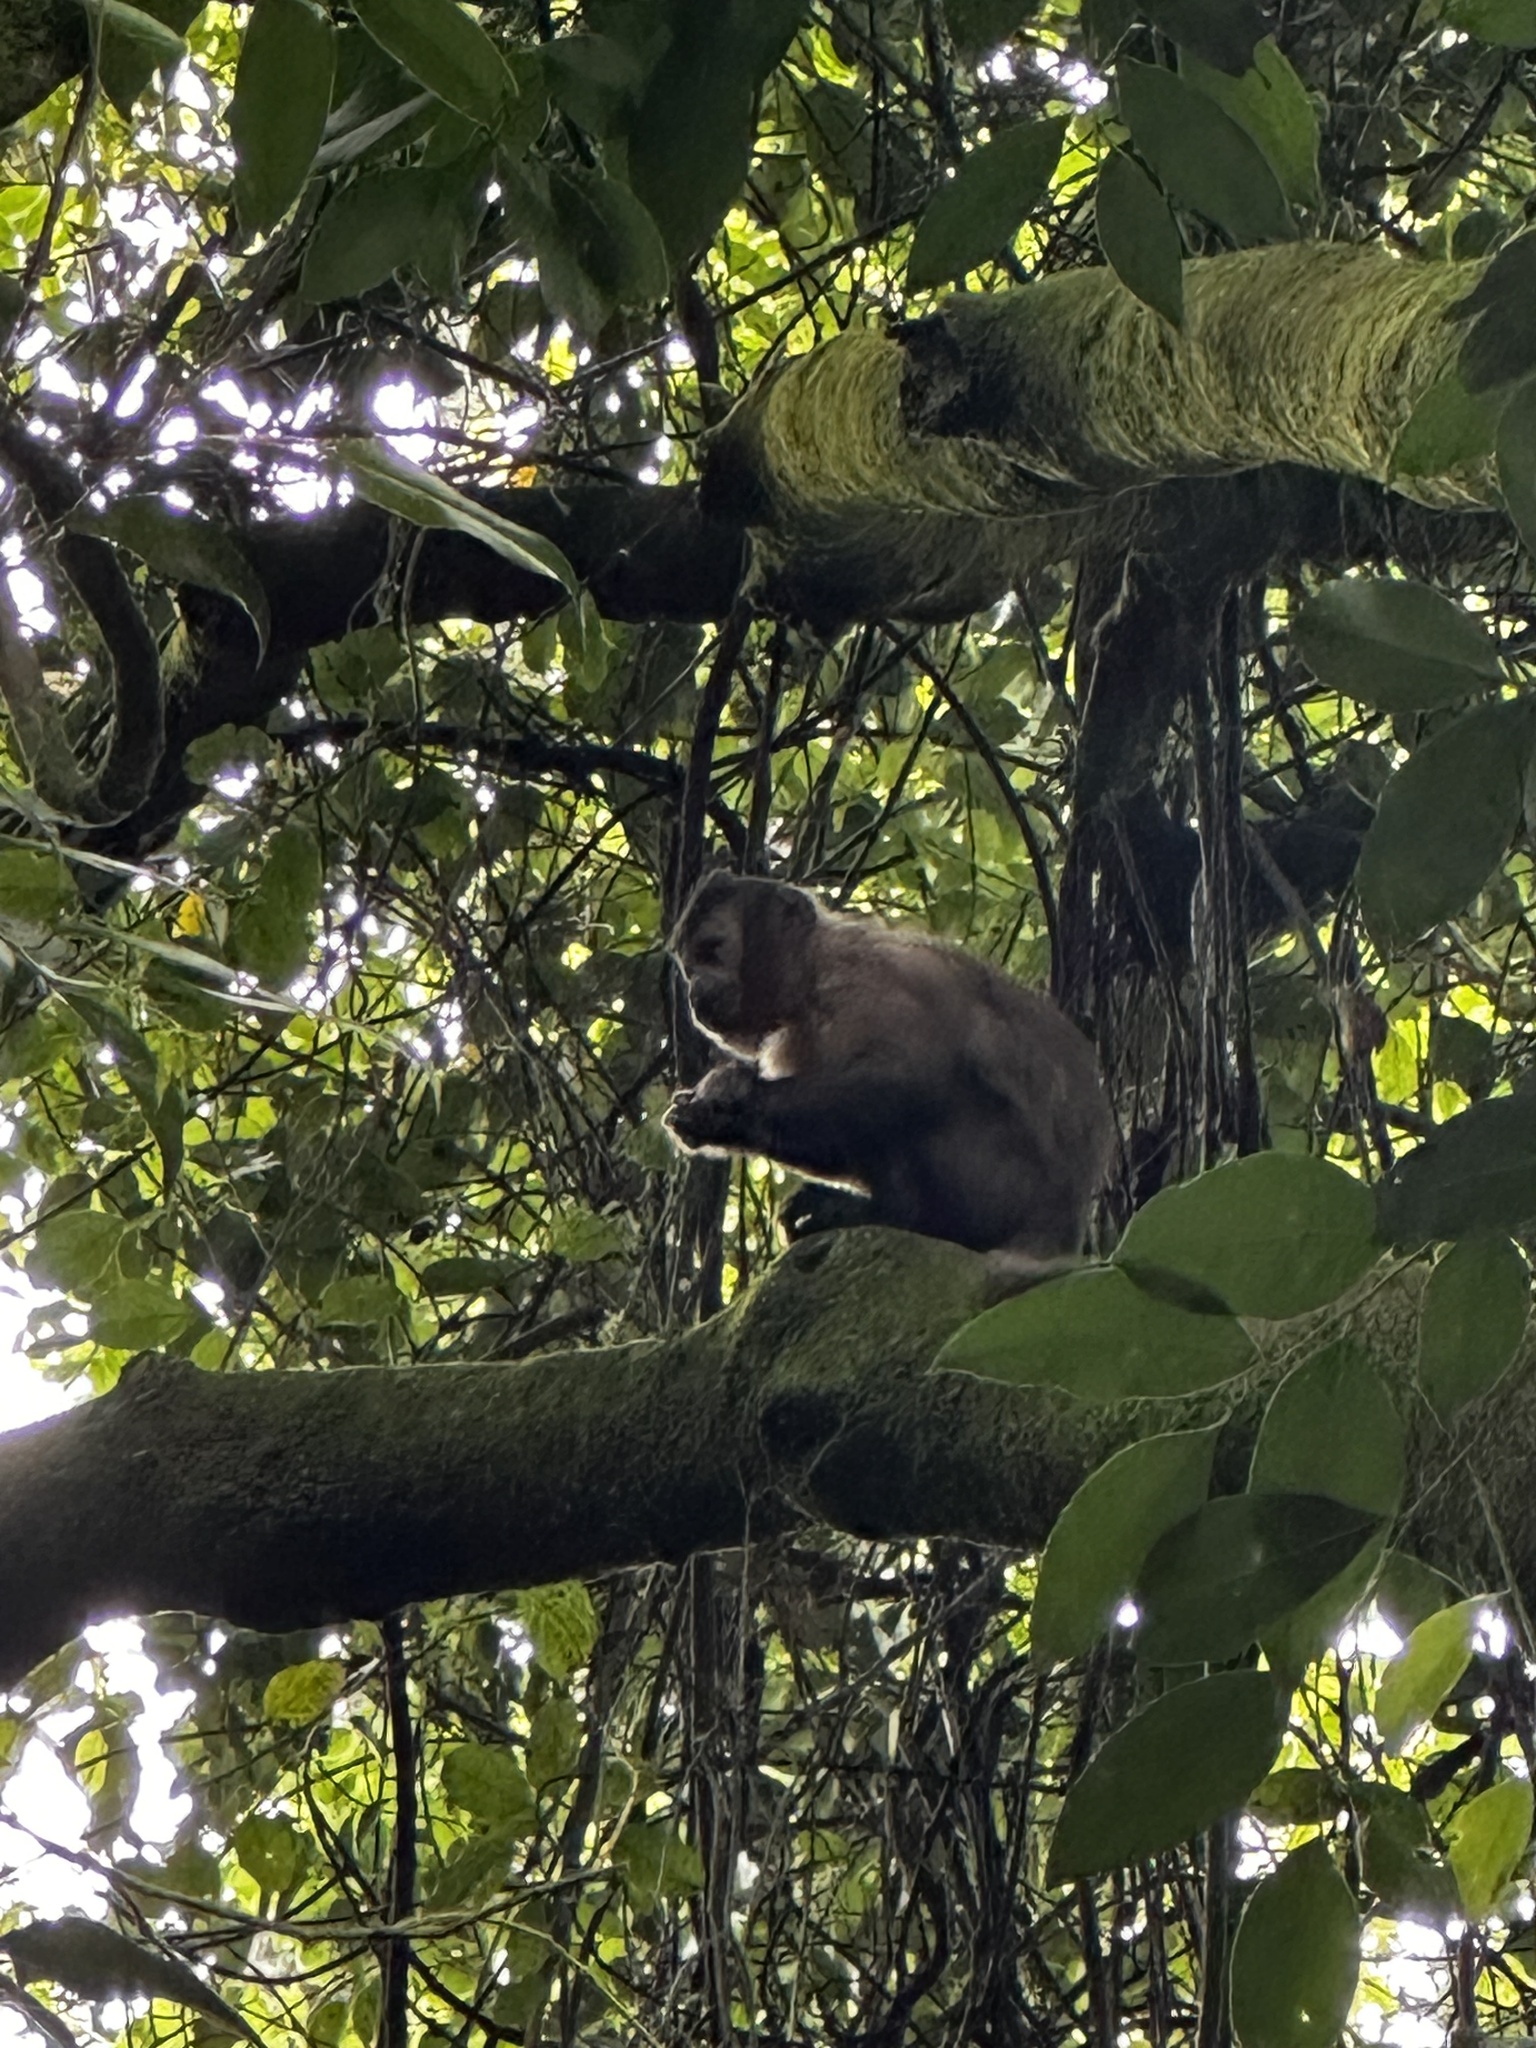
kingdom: Animalia
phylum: Chordata
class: Mammalia
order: Primates
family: Cebidae
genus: Sapajus
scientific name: Sapajus nigritus
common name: Black capuchin
